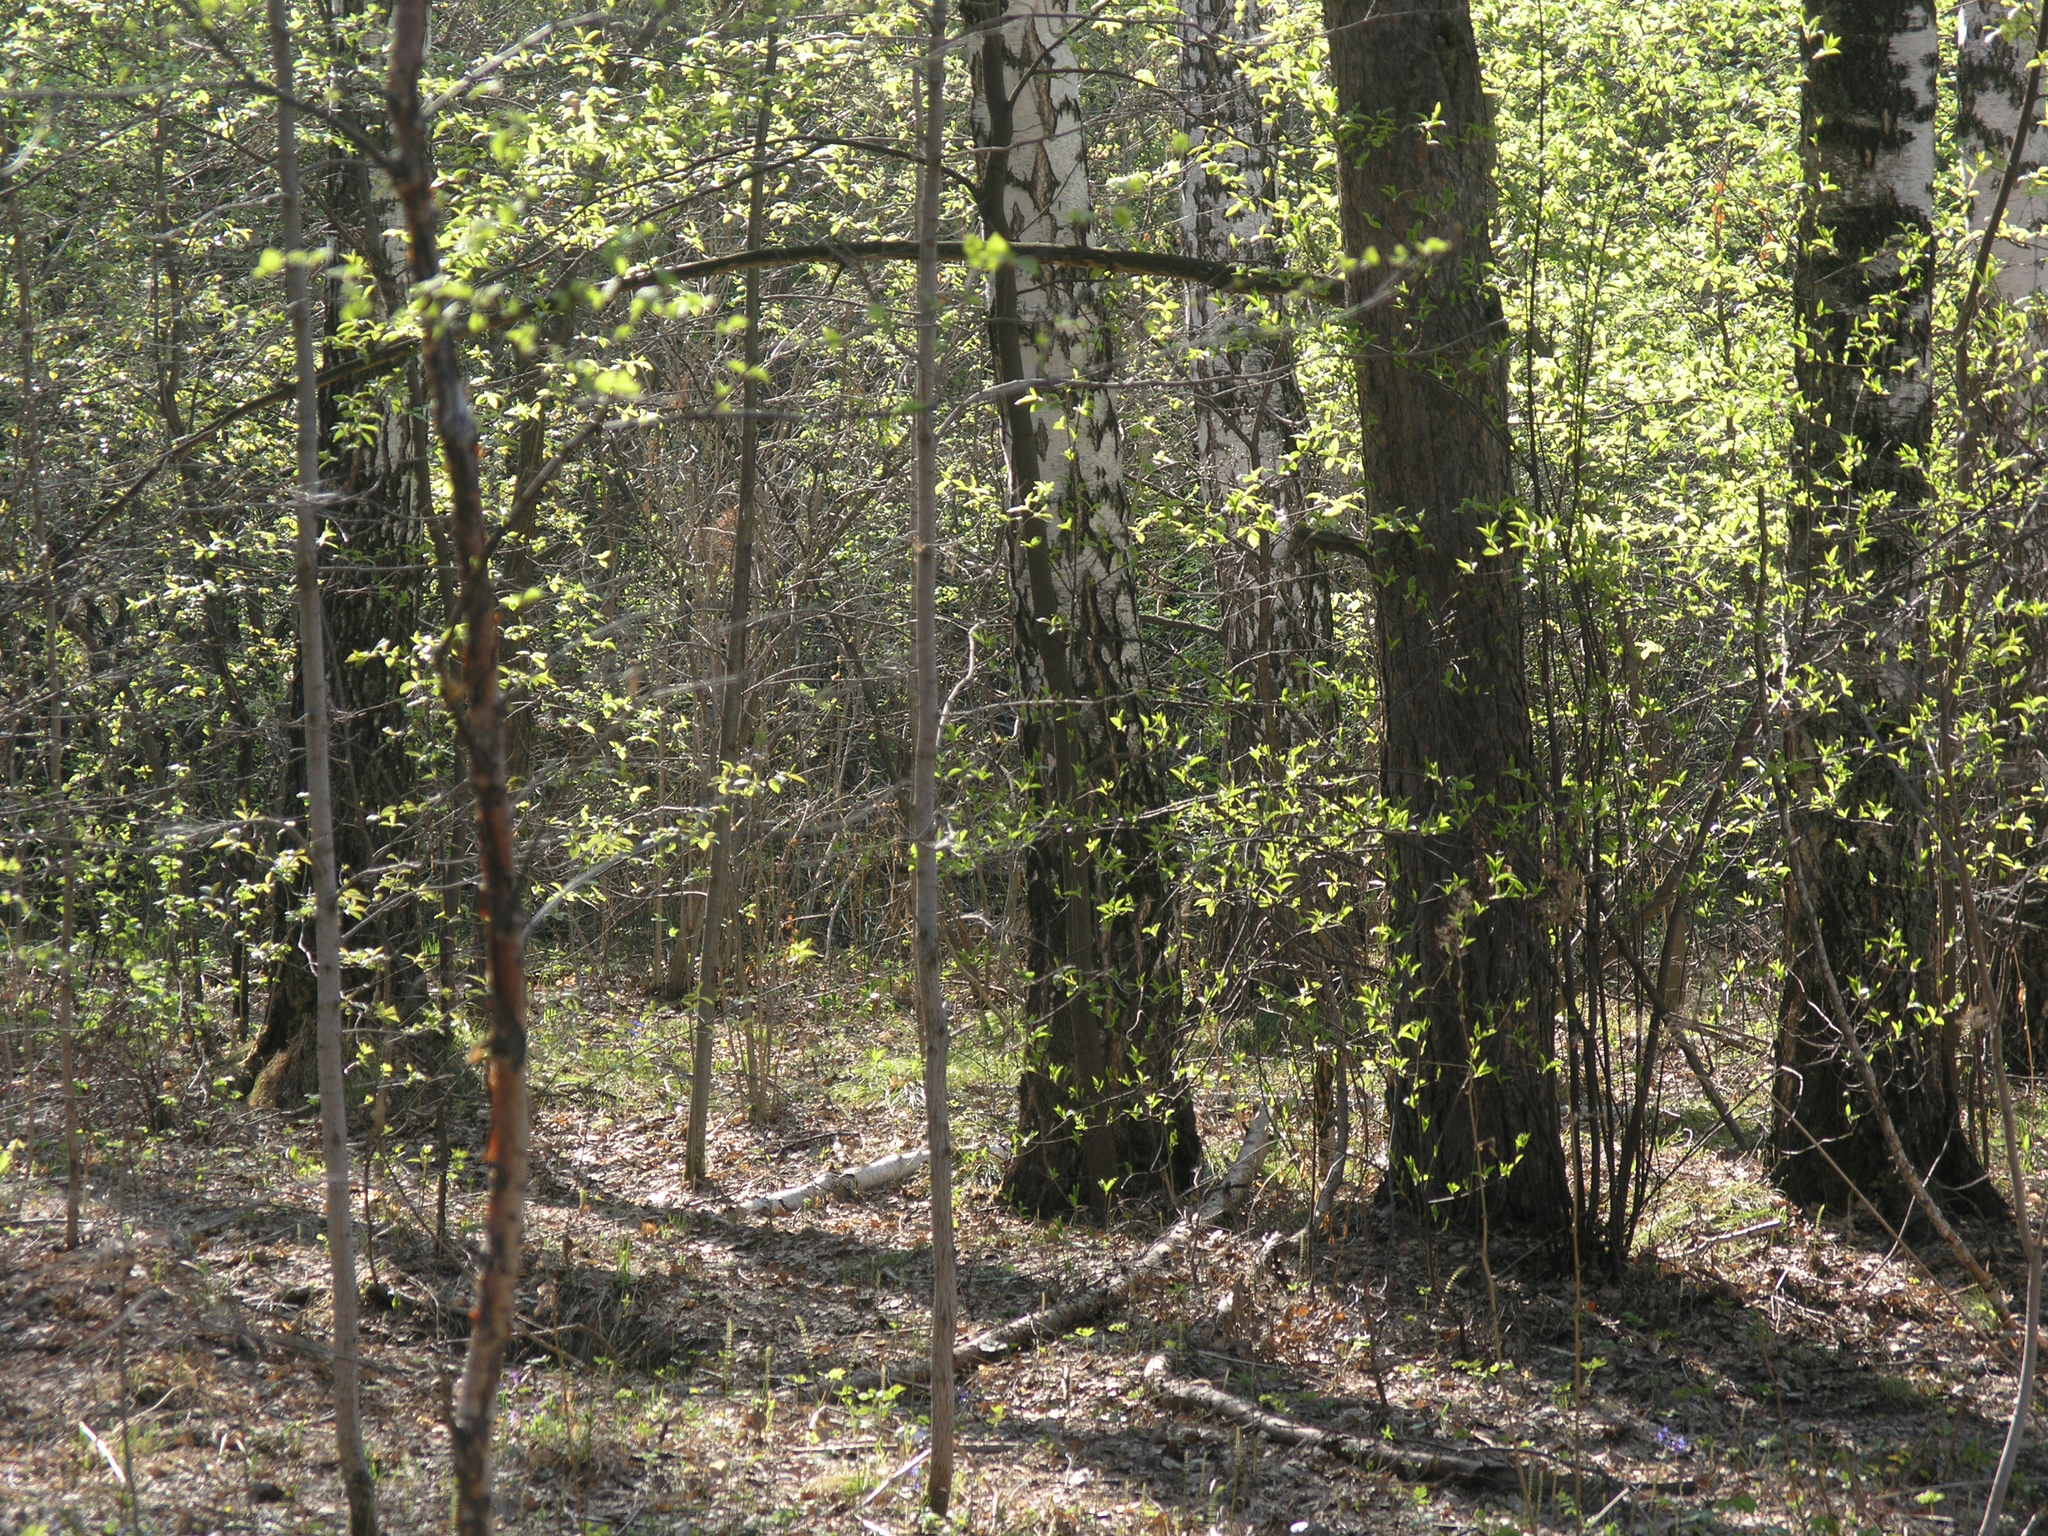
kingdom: Plantae
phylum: Tracheophyta
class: Magnoliopsida
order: Rosales
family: Rosaceae
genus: Prunus
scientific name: Prunus padus
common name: Bird cherry
